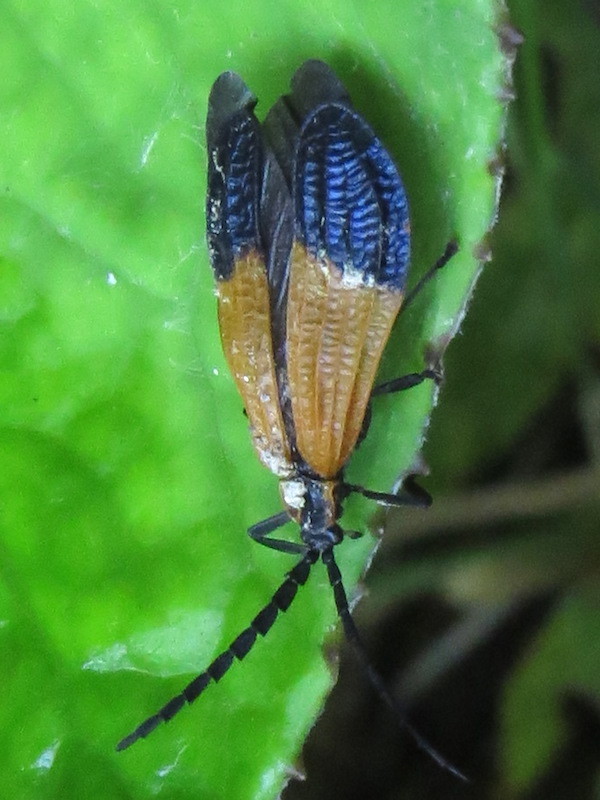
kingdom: Animalia
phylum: Arthropoda
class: Insecta
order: Coleoptera
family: Lycidae
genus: Calopteron
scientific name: Calopteron terminale
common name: End band net-winged beetle
